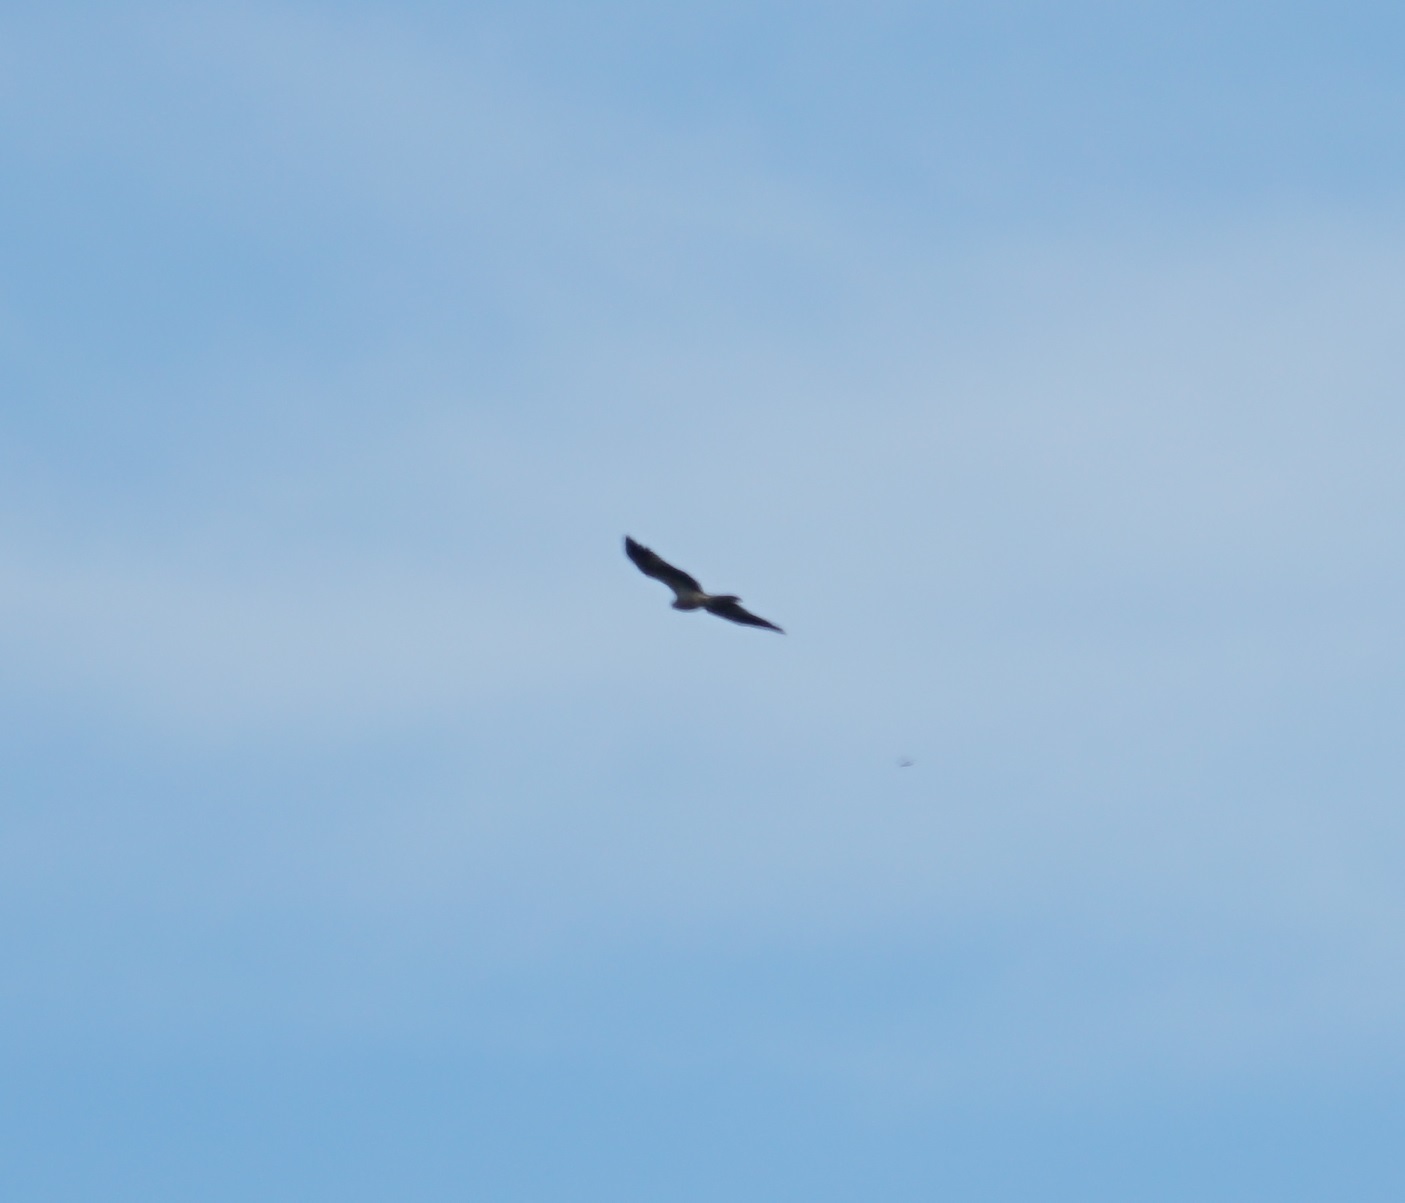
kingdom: Animalia
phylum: Chordata
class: Aves
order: Accipitriformes
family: Accipitridae
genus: Haliastur
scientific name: Haliastur sphenurus
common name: Whistling kite
